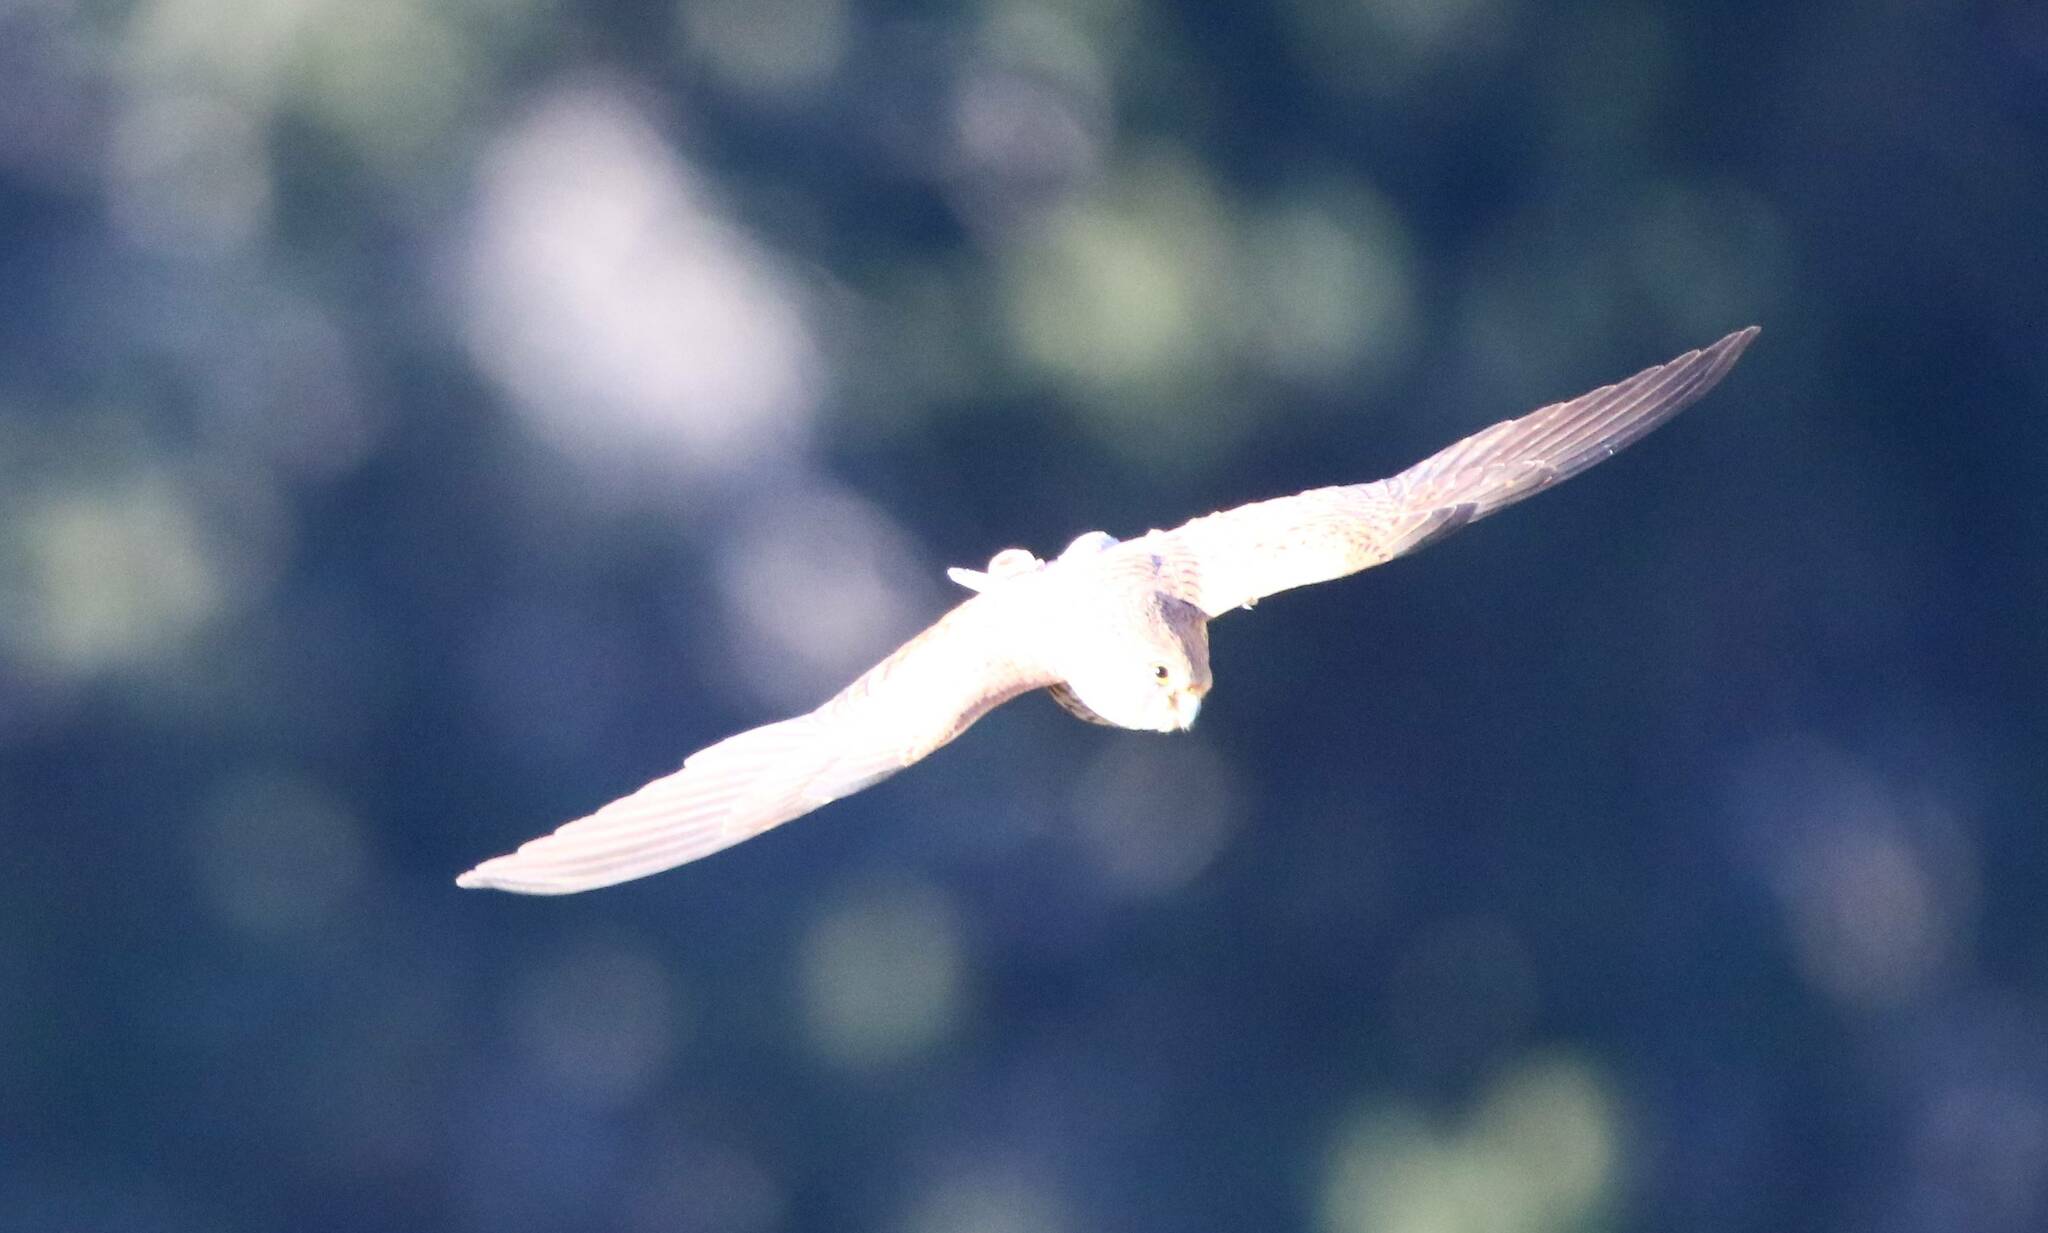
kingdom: Animalia
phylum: Chordata
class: Aves
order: Falconiformes
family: Falconidae
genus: Falco
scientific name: Falco naumanni
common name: Lesser kestrel
